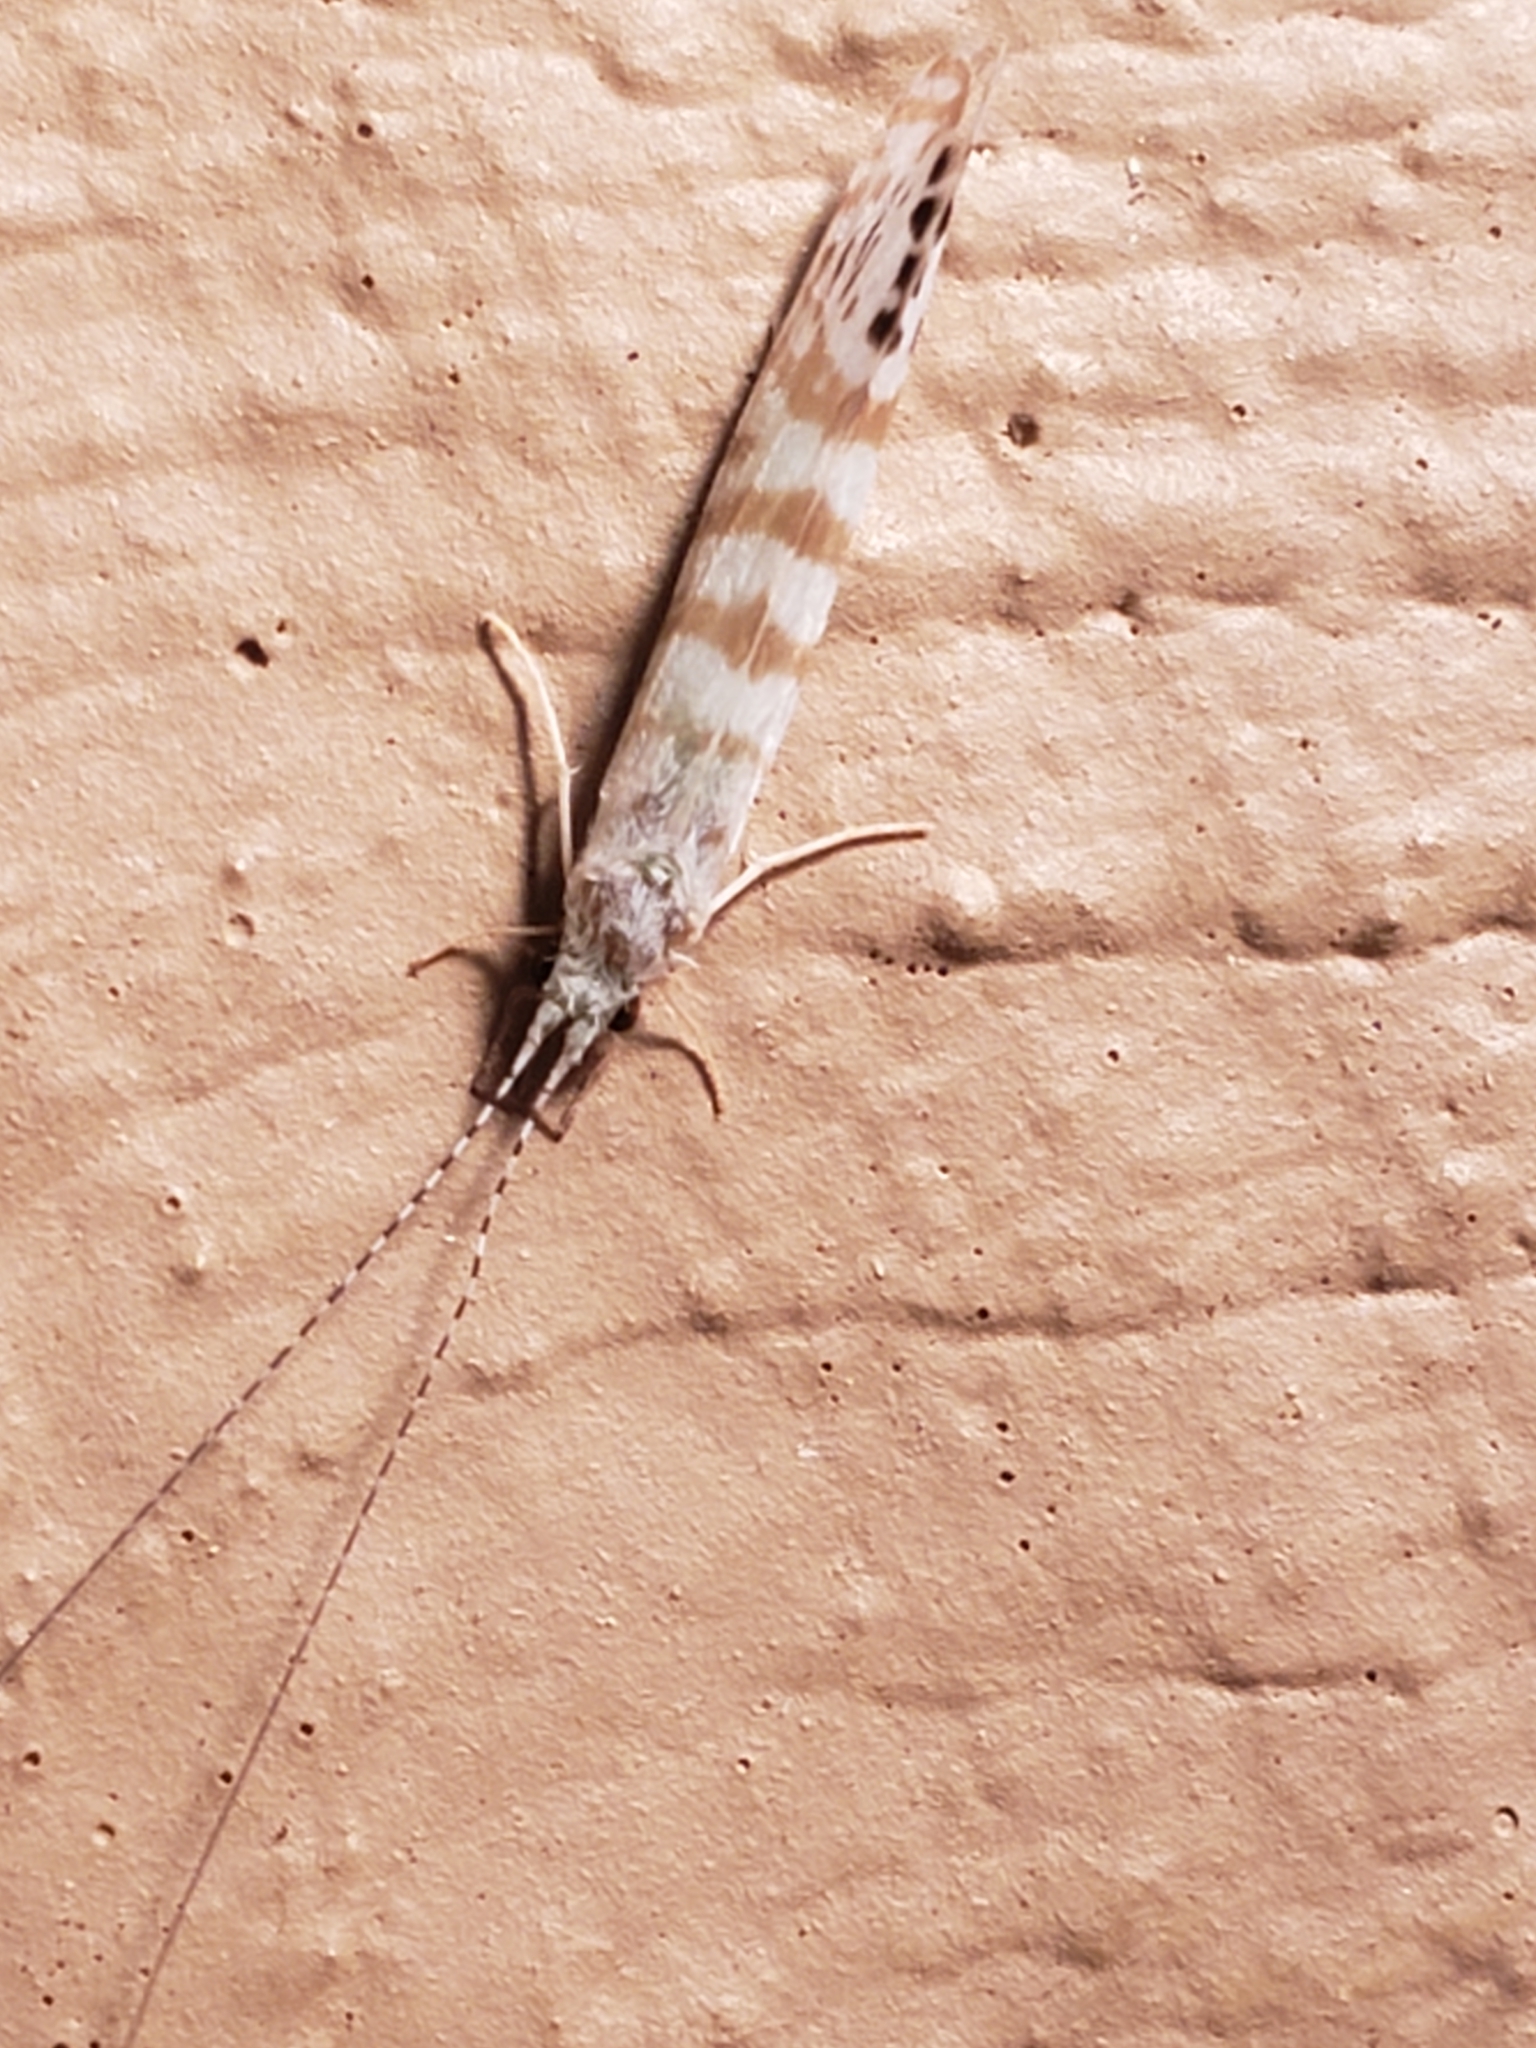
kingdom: Animalia
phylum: Arthropoda
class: Insecta
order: Trichoptera
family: Leptoceridae
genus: Nectopsyche
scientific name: Nectopsyche exquisita
